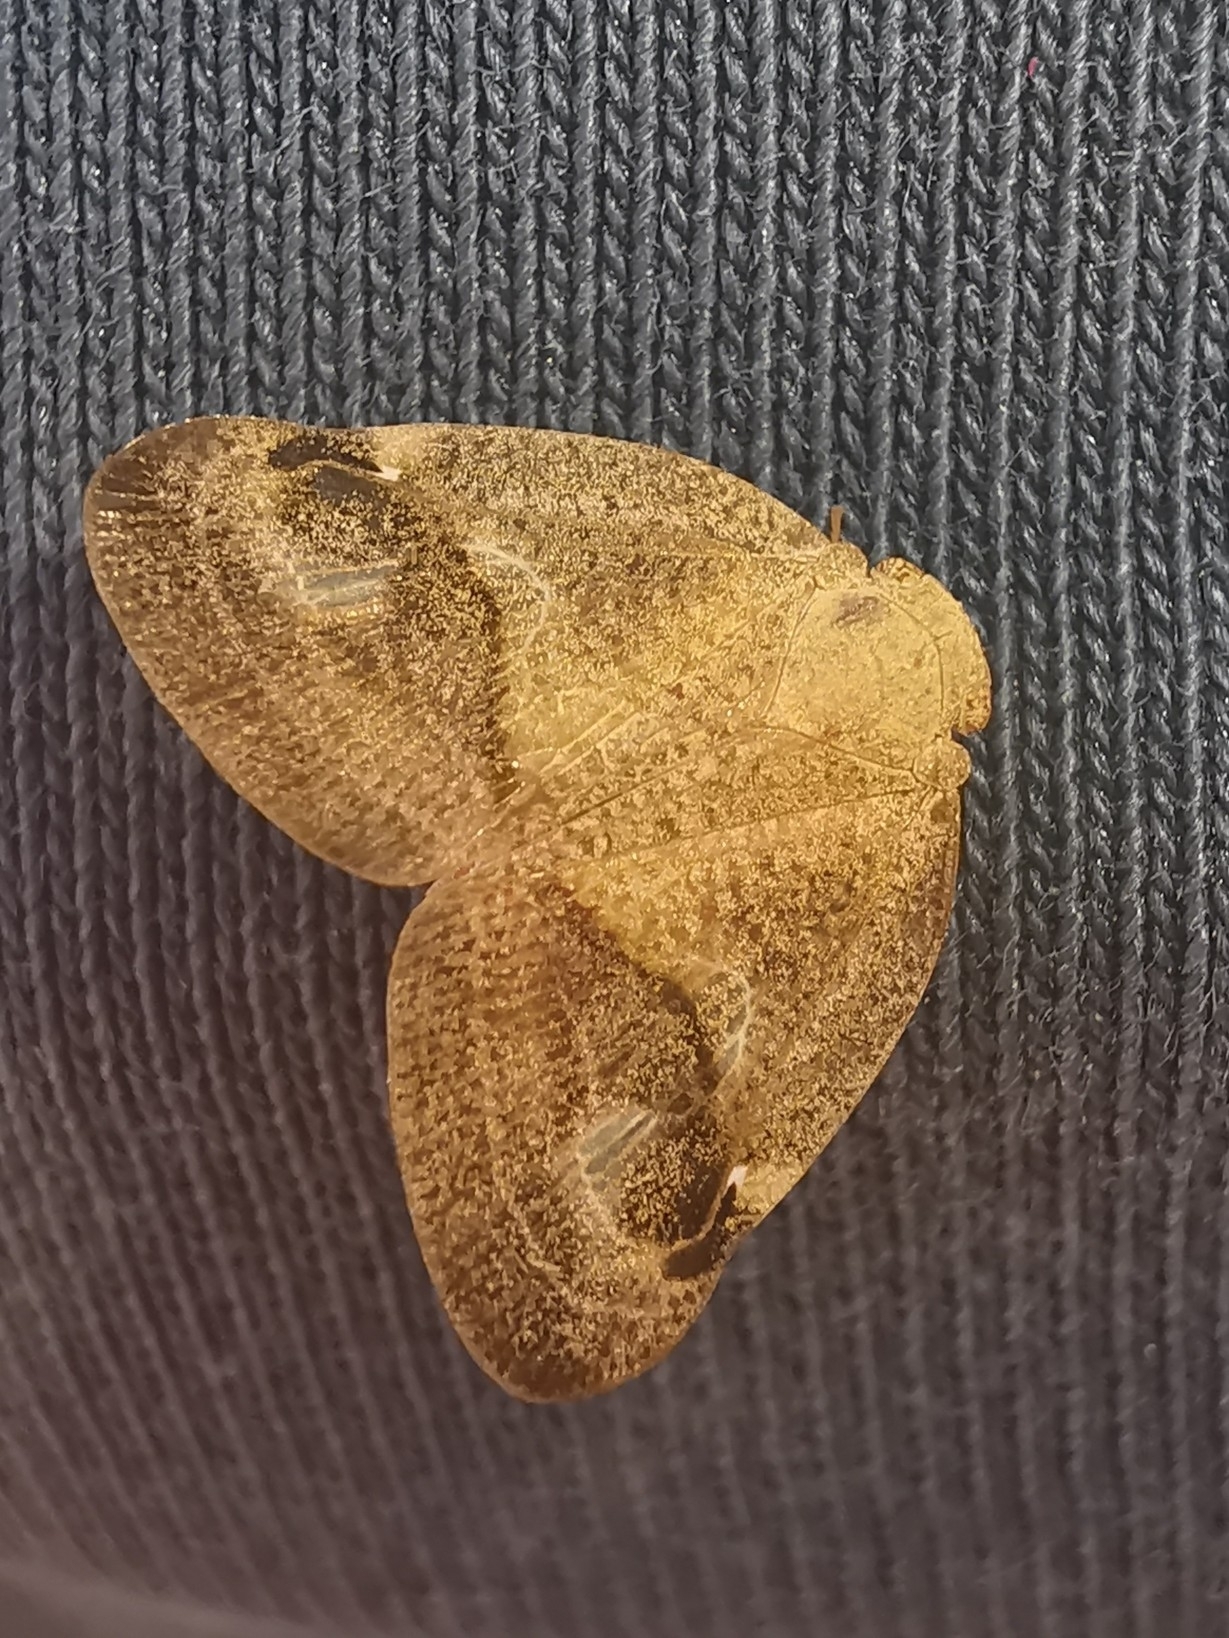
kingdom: Animalia
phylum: Arthropoda
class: Insecta
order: Hemiptera
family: Ricaniidae
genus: Ricania
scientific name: Ricania hedenborgi
